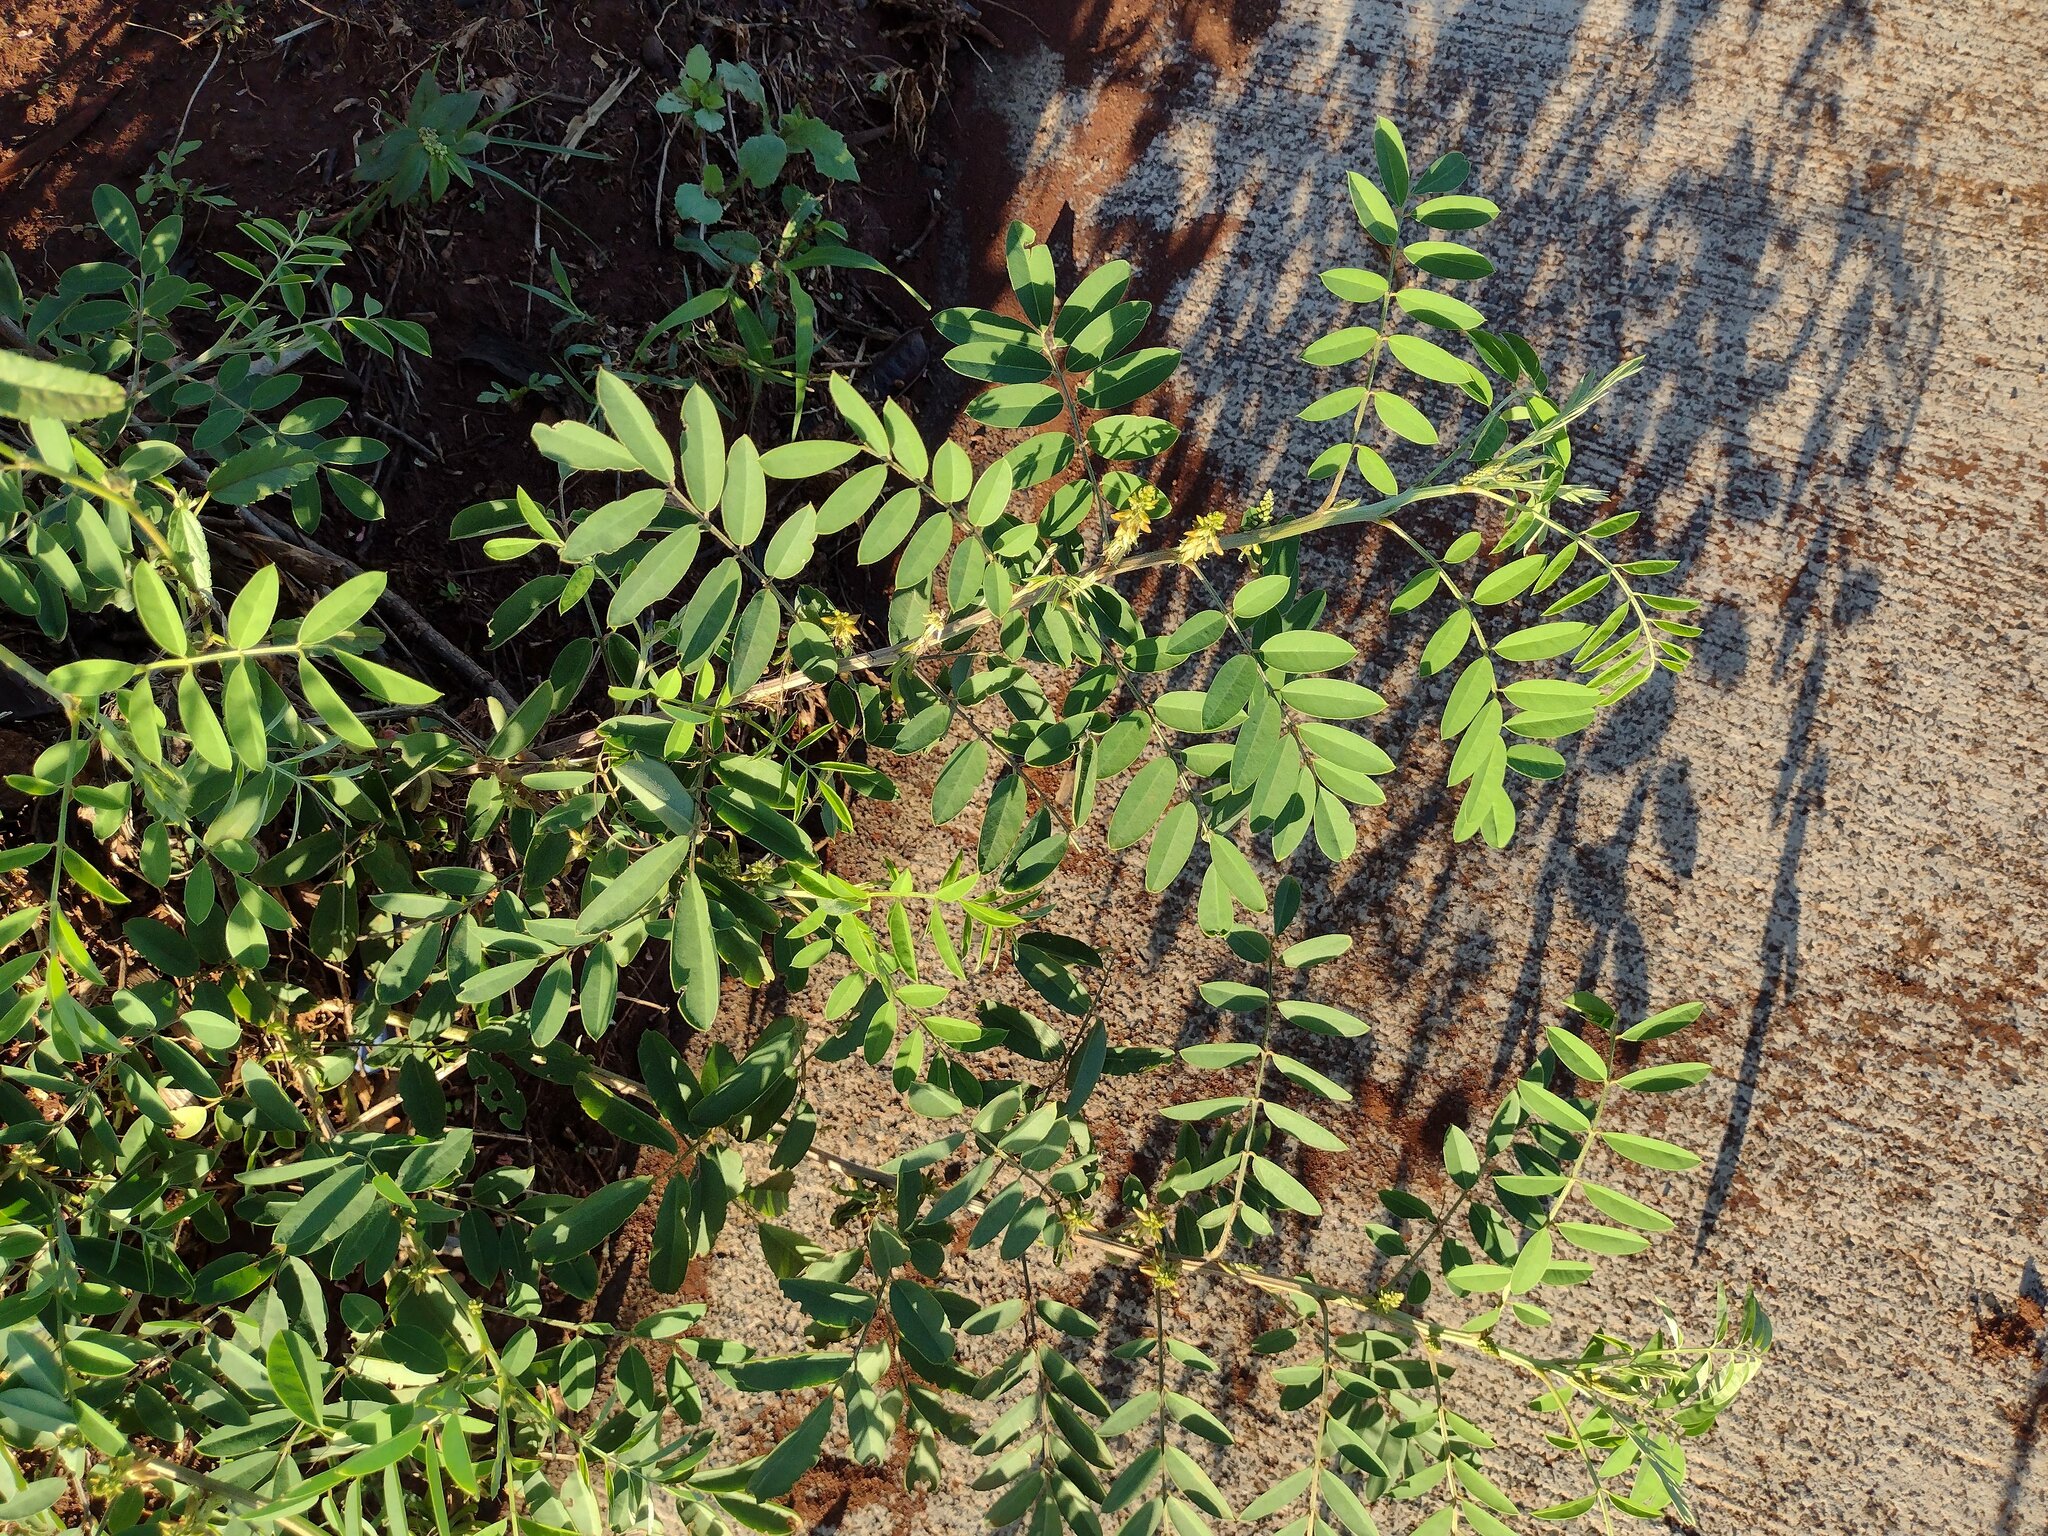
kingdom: Plantae
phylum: Tracheophyta
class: Magnoliopsida
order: Fabales
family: Fabaceae
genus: Indigofera
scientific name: Indigofera suffruticosa
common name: Anil de pasto
